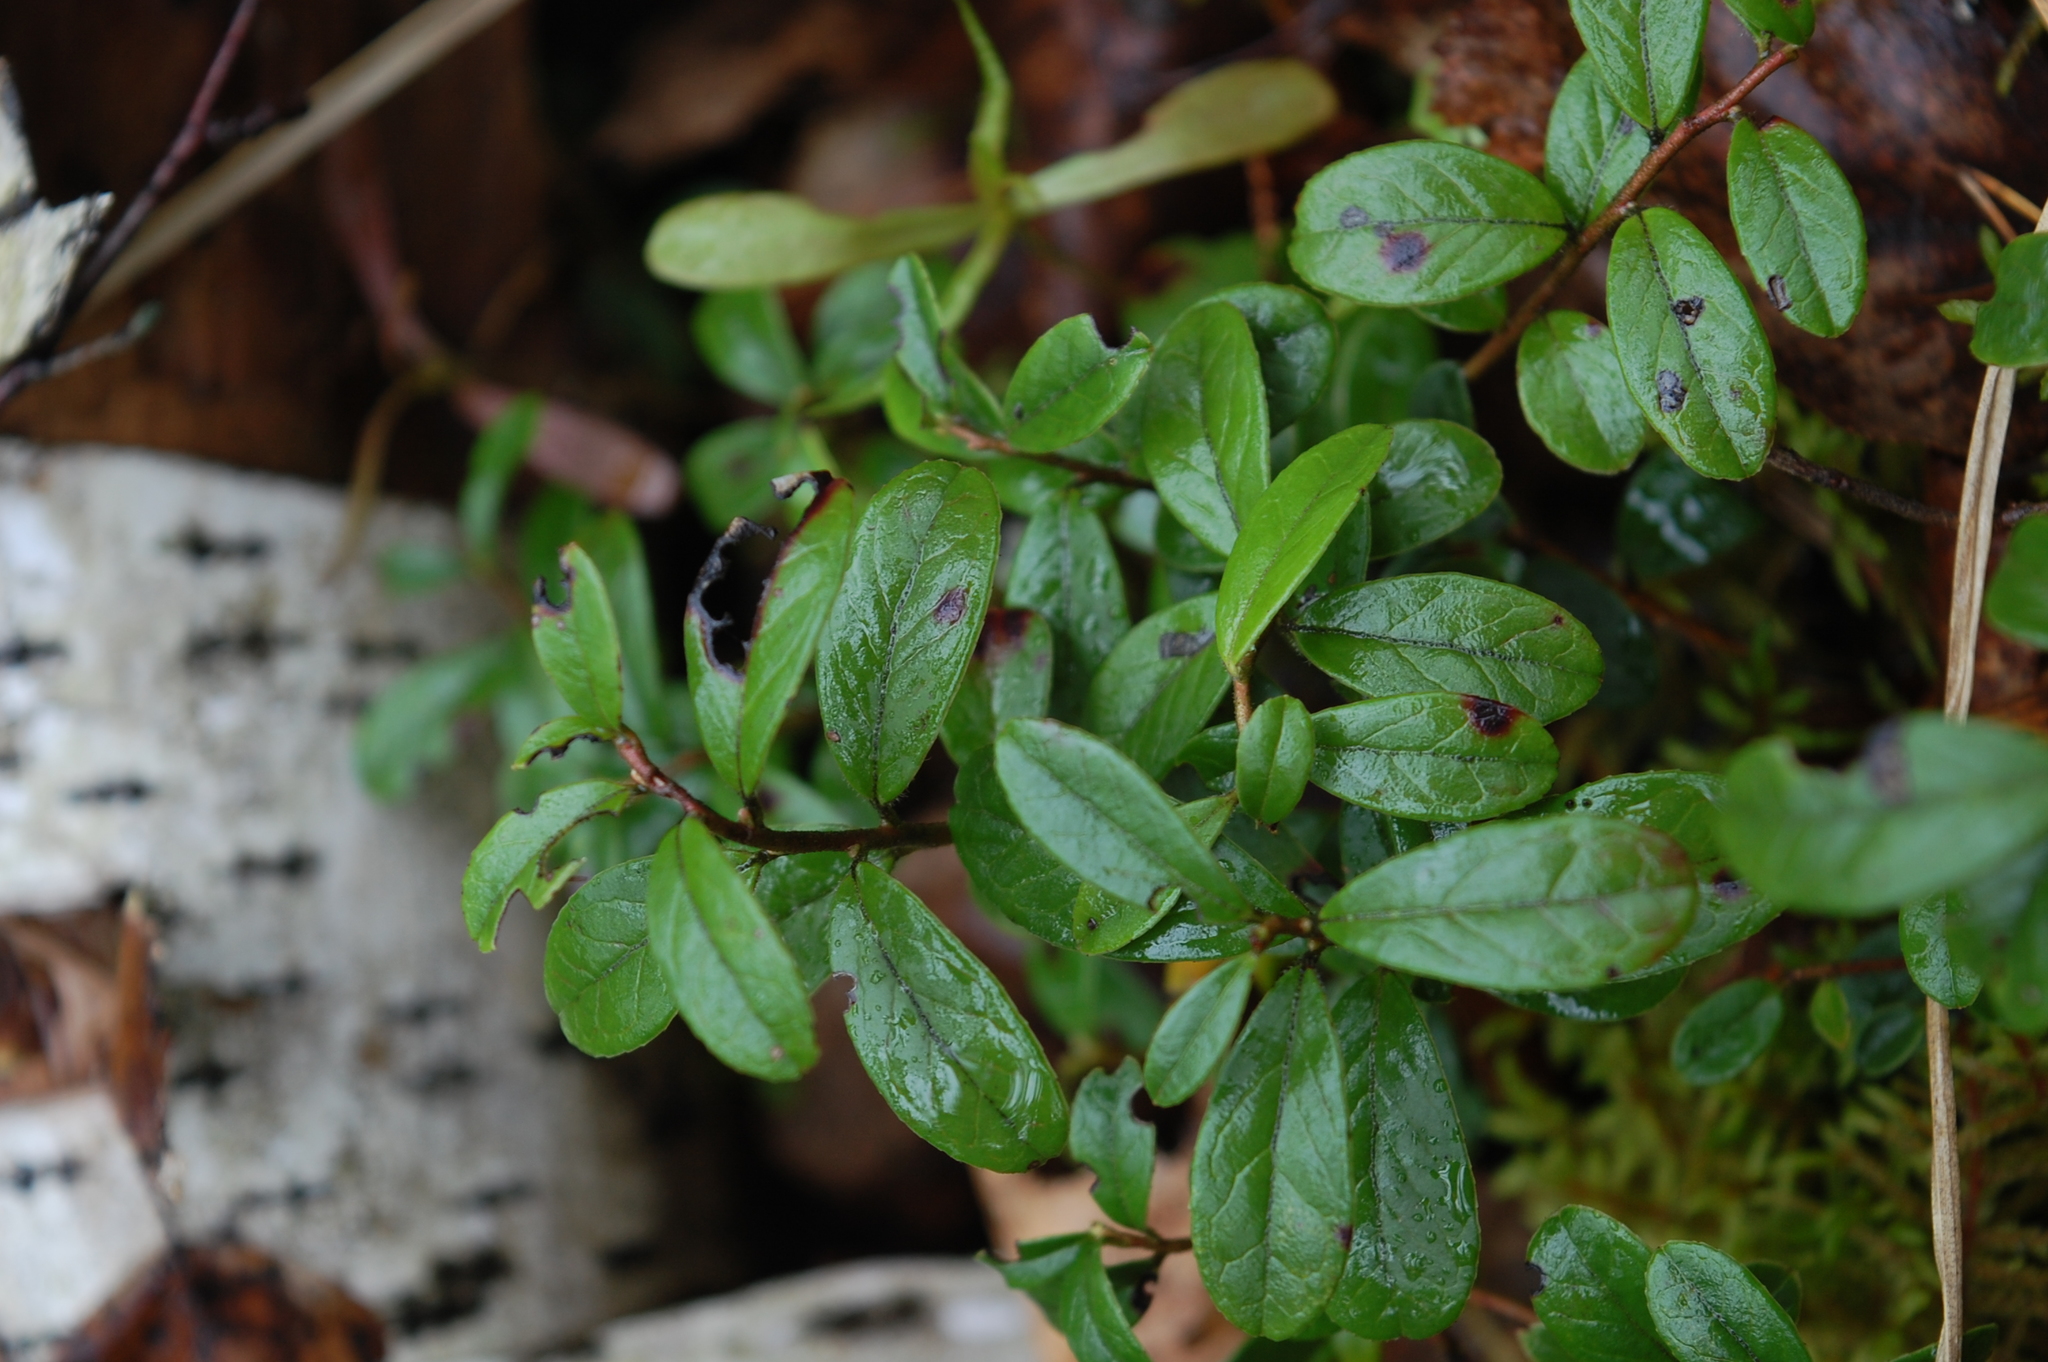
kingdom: Plantae
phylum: Tracheophyta
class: Magnoliopsida
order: Ericales
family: Ericaceae
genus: Vaccinium
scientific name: Vaccinium vitis-idaea
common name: Cowberry
